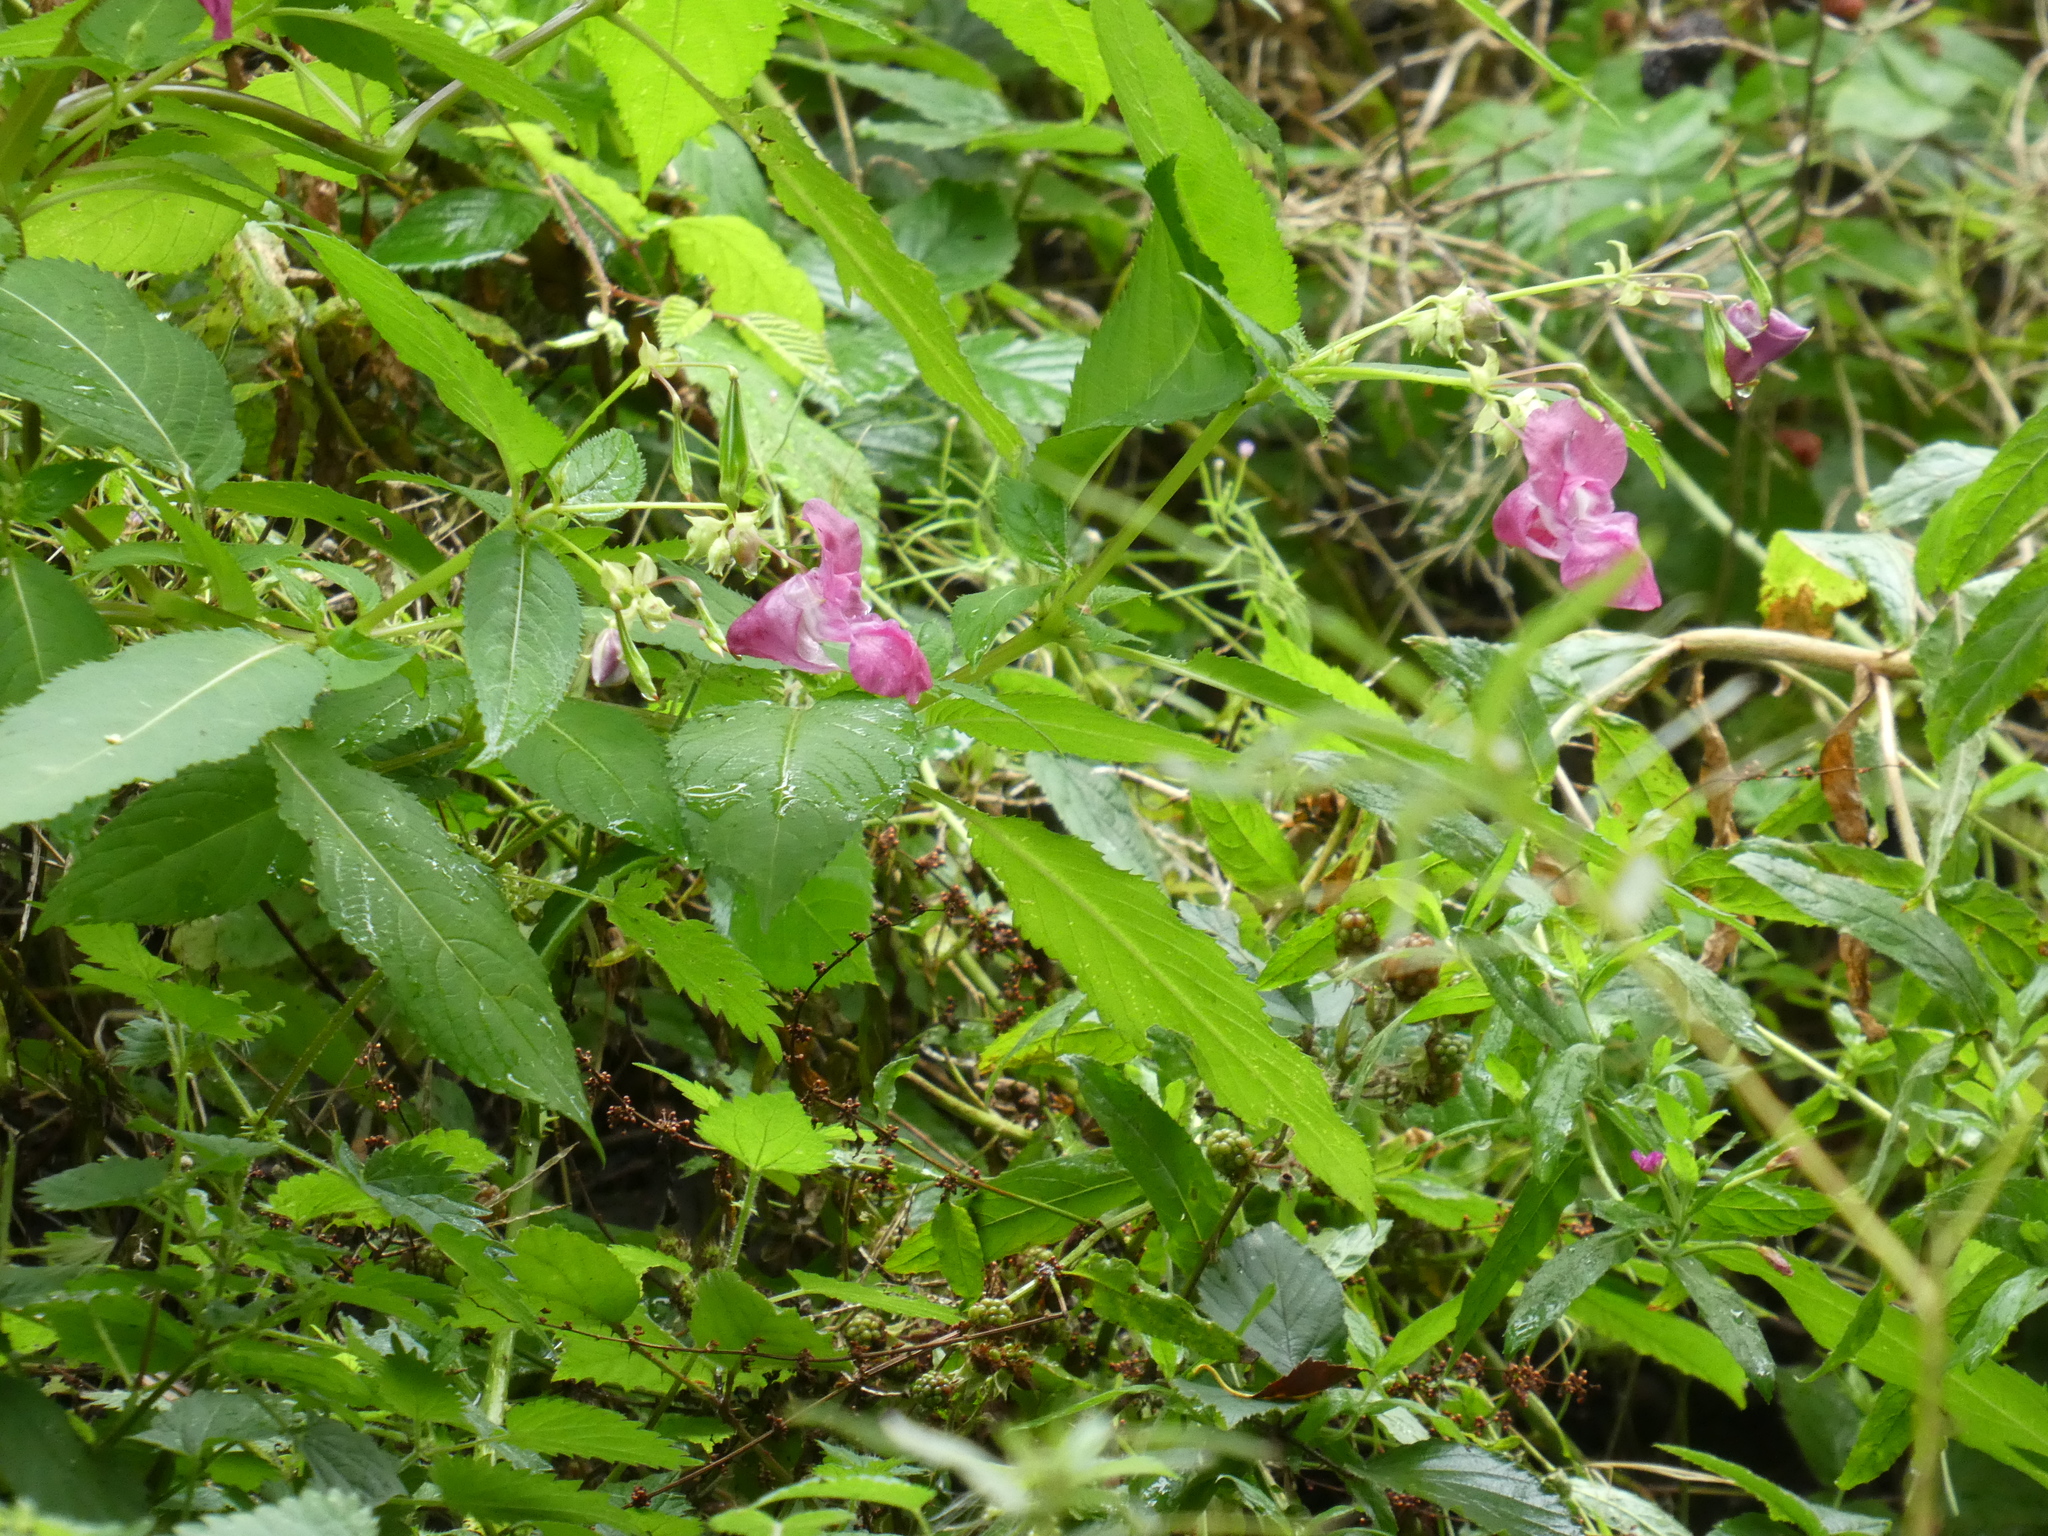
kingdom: Plantae
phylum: Tracheophyta
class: Magnoliopsida
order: Ericales
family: Balsaminaceae
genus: Impatiens
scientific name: Impatiens glandulifera
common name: Himalayan balsam
